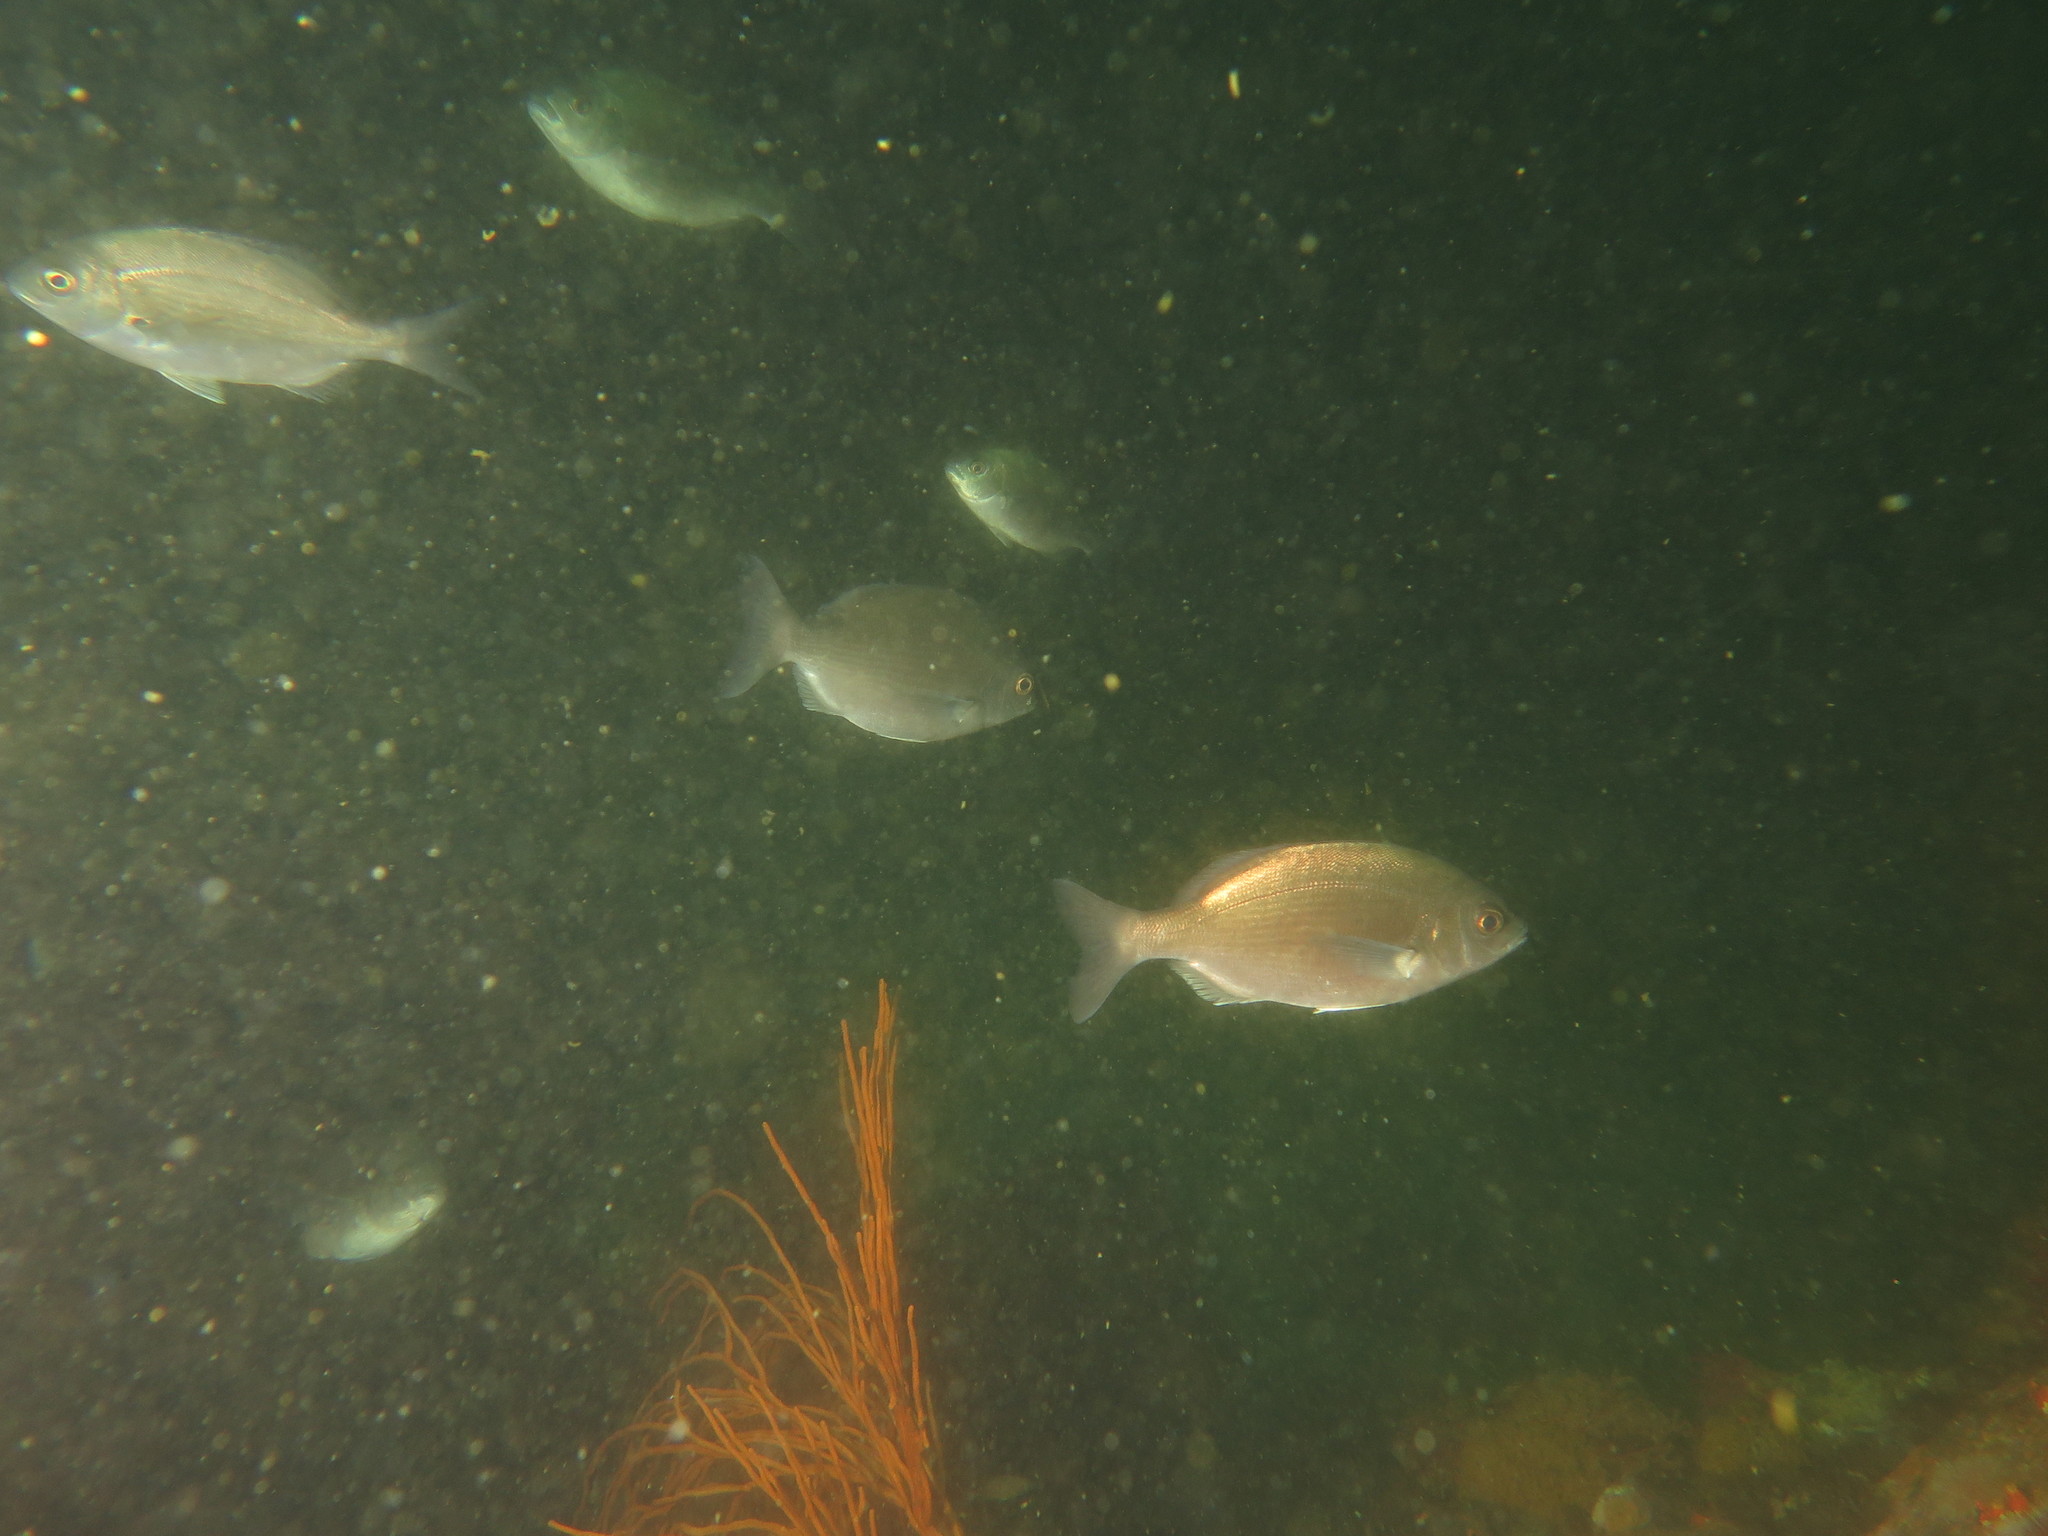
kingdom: Animalia
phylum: Chordata
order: Perciformes
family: Sparidae
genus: Pachymetopon
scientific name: Pachymetopon blochii
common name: Hottentot
